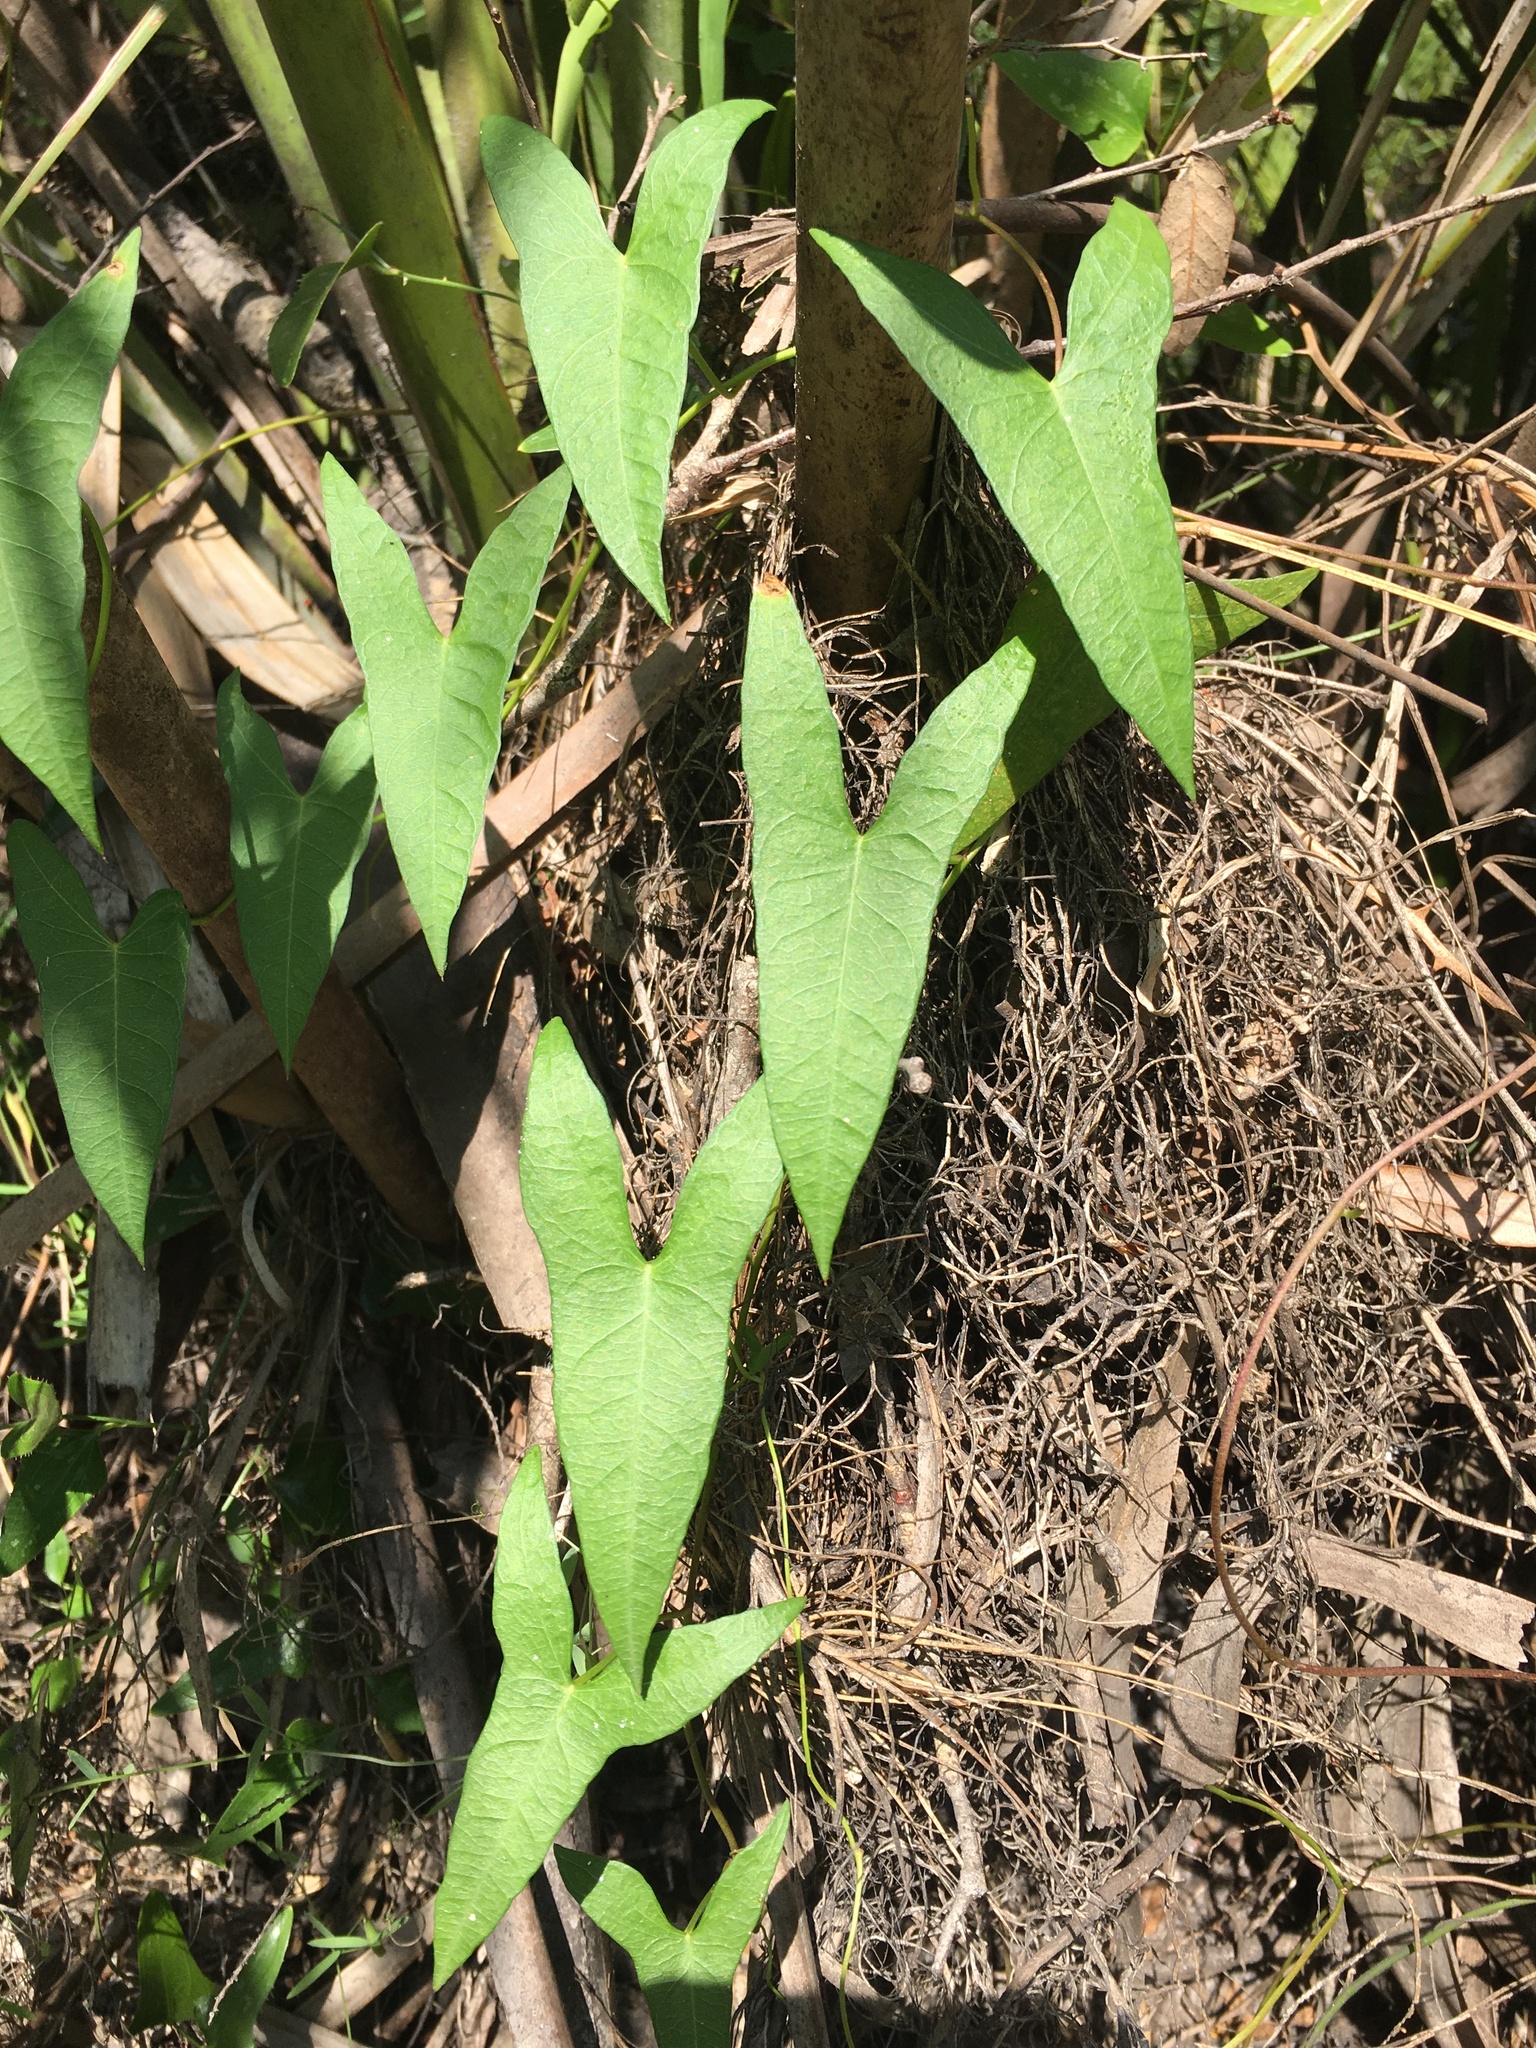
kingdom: Plantae
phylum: Tracheophyta
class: Magnoliopsida
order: Solanales
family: Convolvulaceae
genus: Ipomoea
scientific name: Ipomoea sagittata
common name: Saltmarsh morning glory
